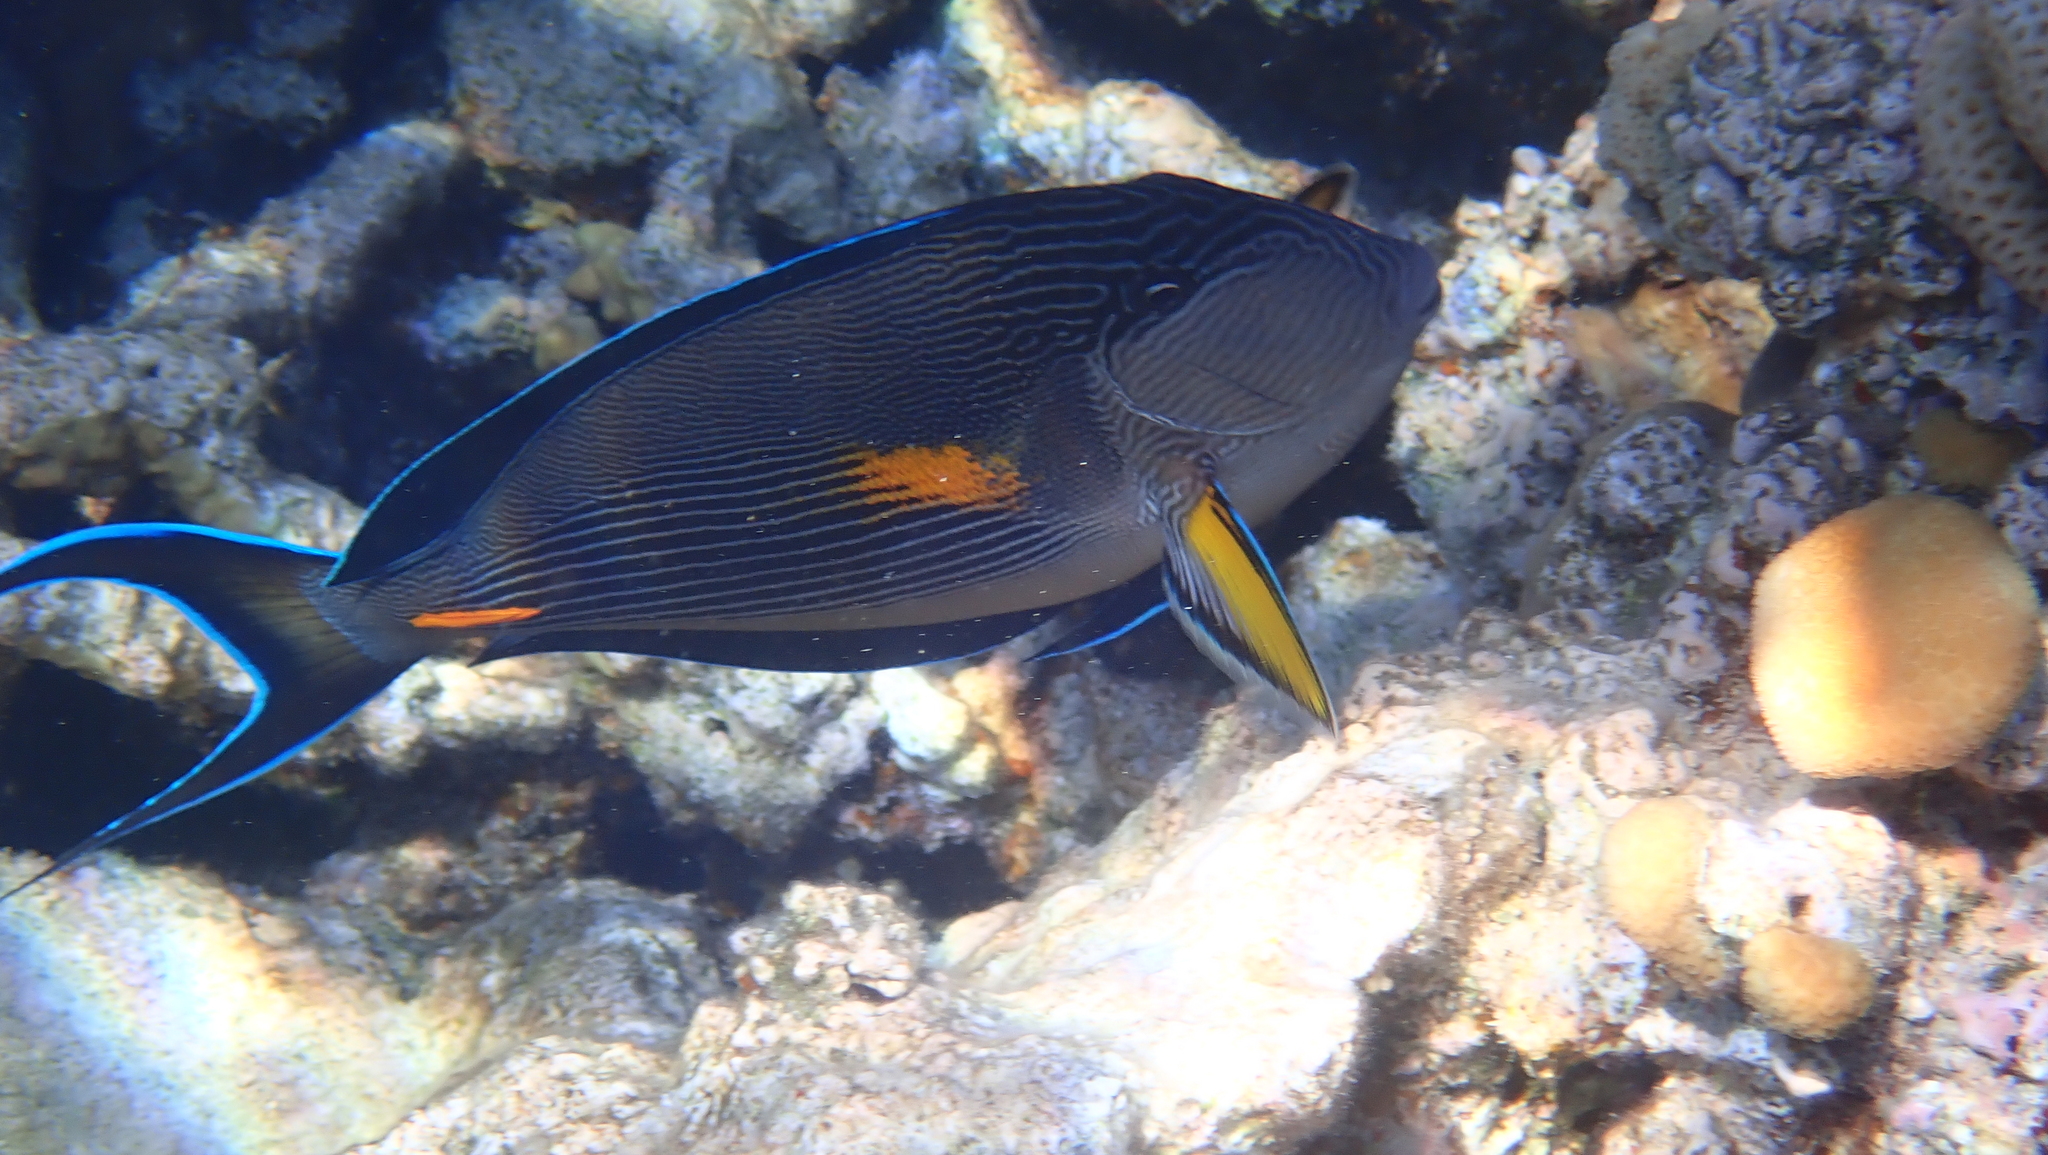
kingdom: Animalia
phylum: Chordata
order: Perciformes
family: Acanthuridae
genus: Acanthurus
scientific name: Acanthurus sohal
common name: Red sea surgeonfish
